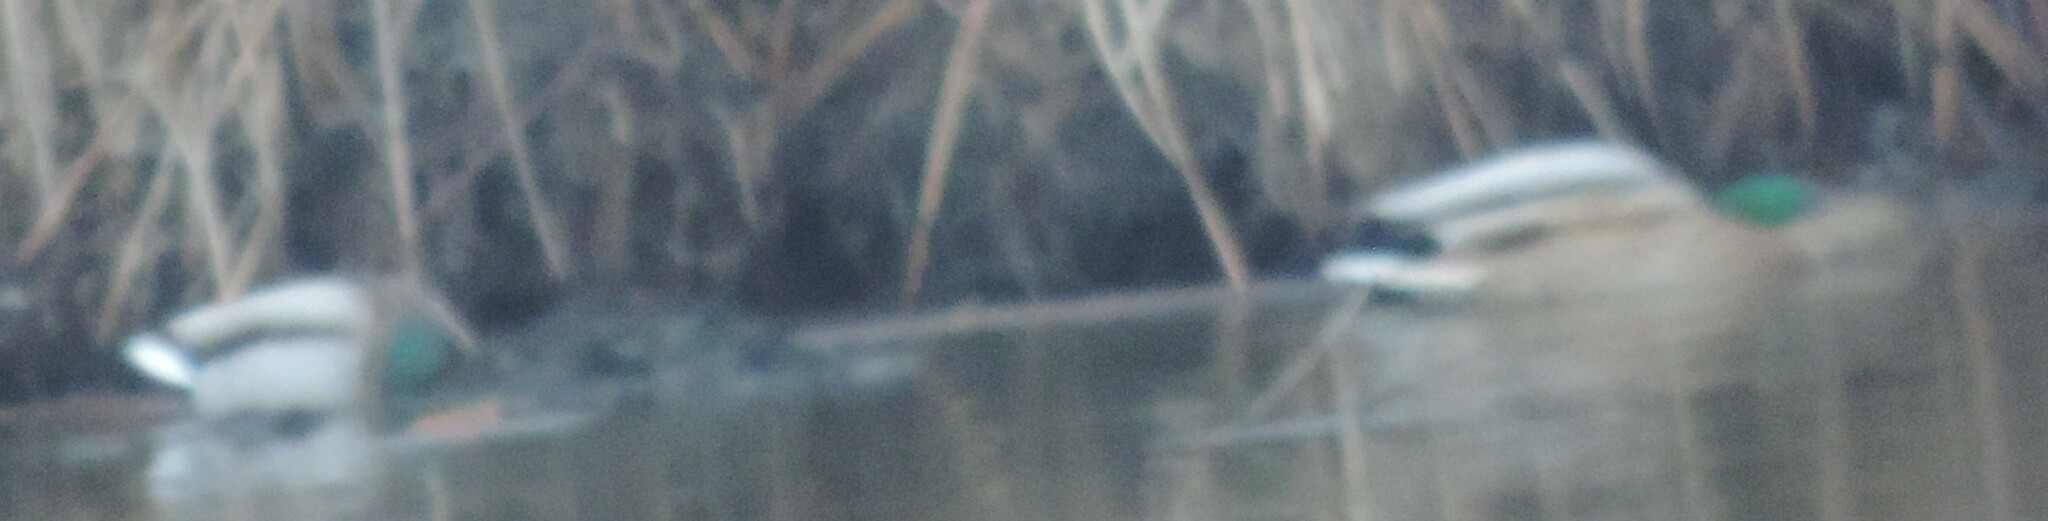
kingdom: Animalia
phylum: Chordata
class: Aves
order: Anseriformes
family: Anatidae
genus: Anas
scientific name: Anas platyrhynchos
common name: Mallard
